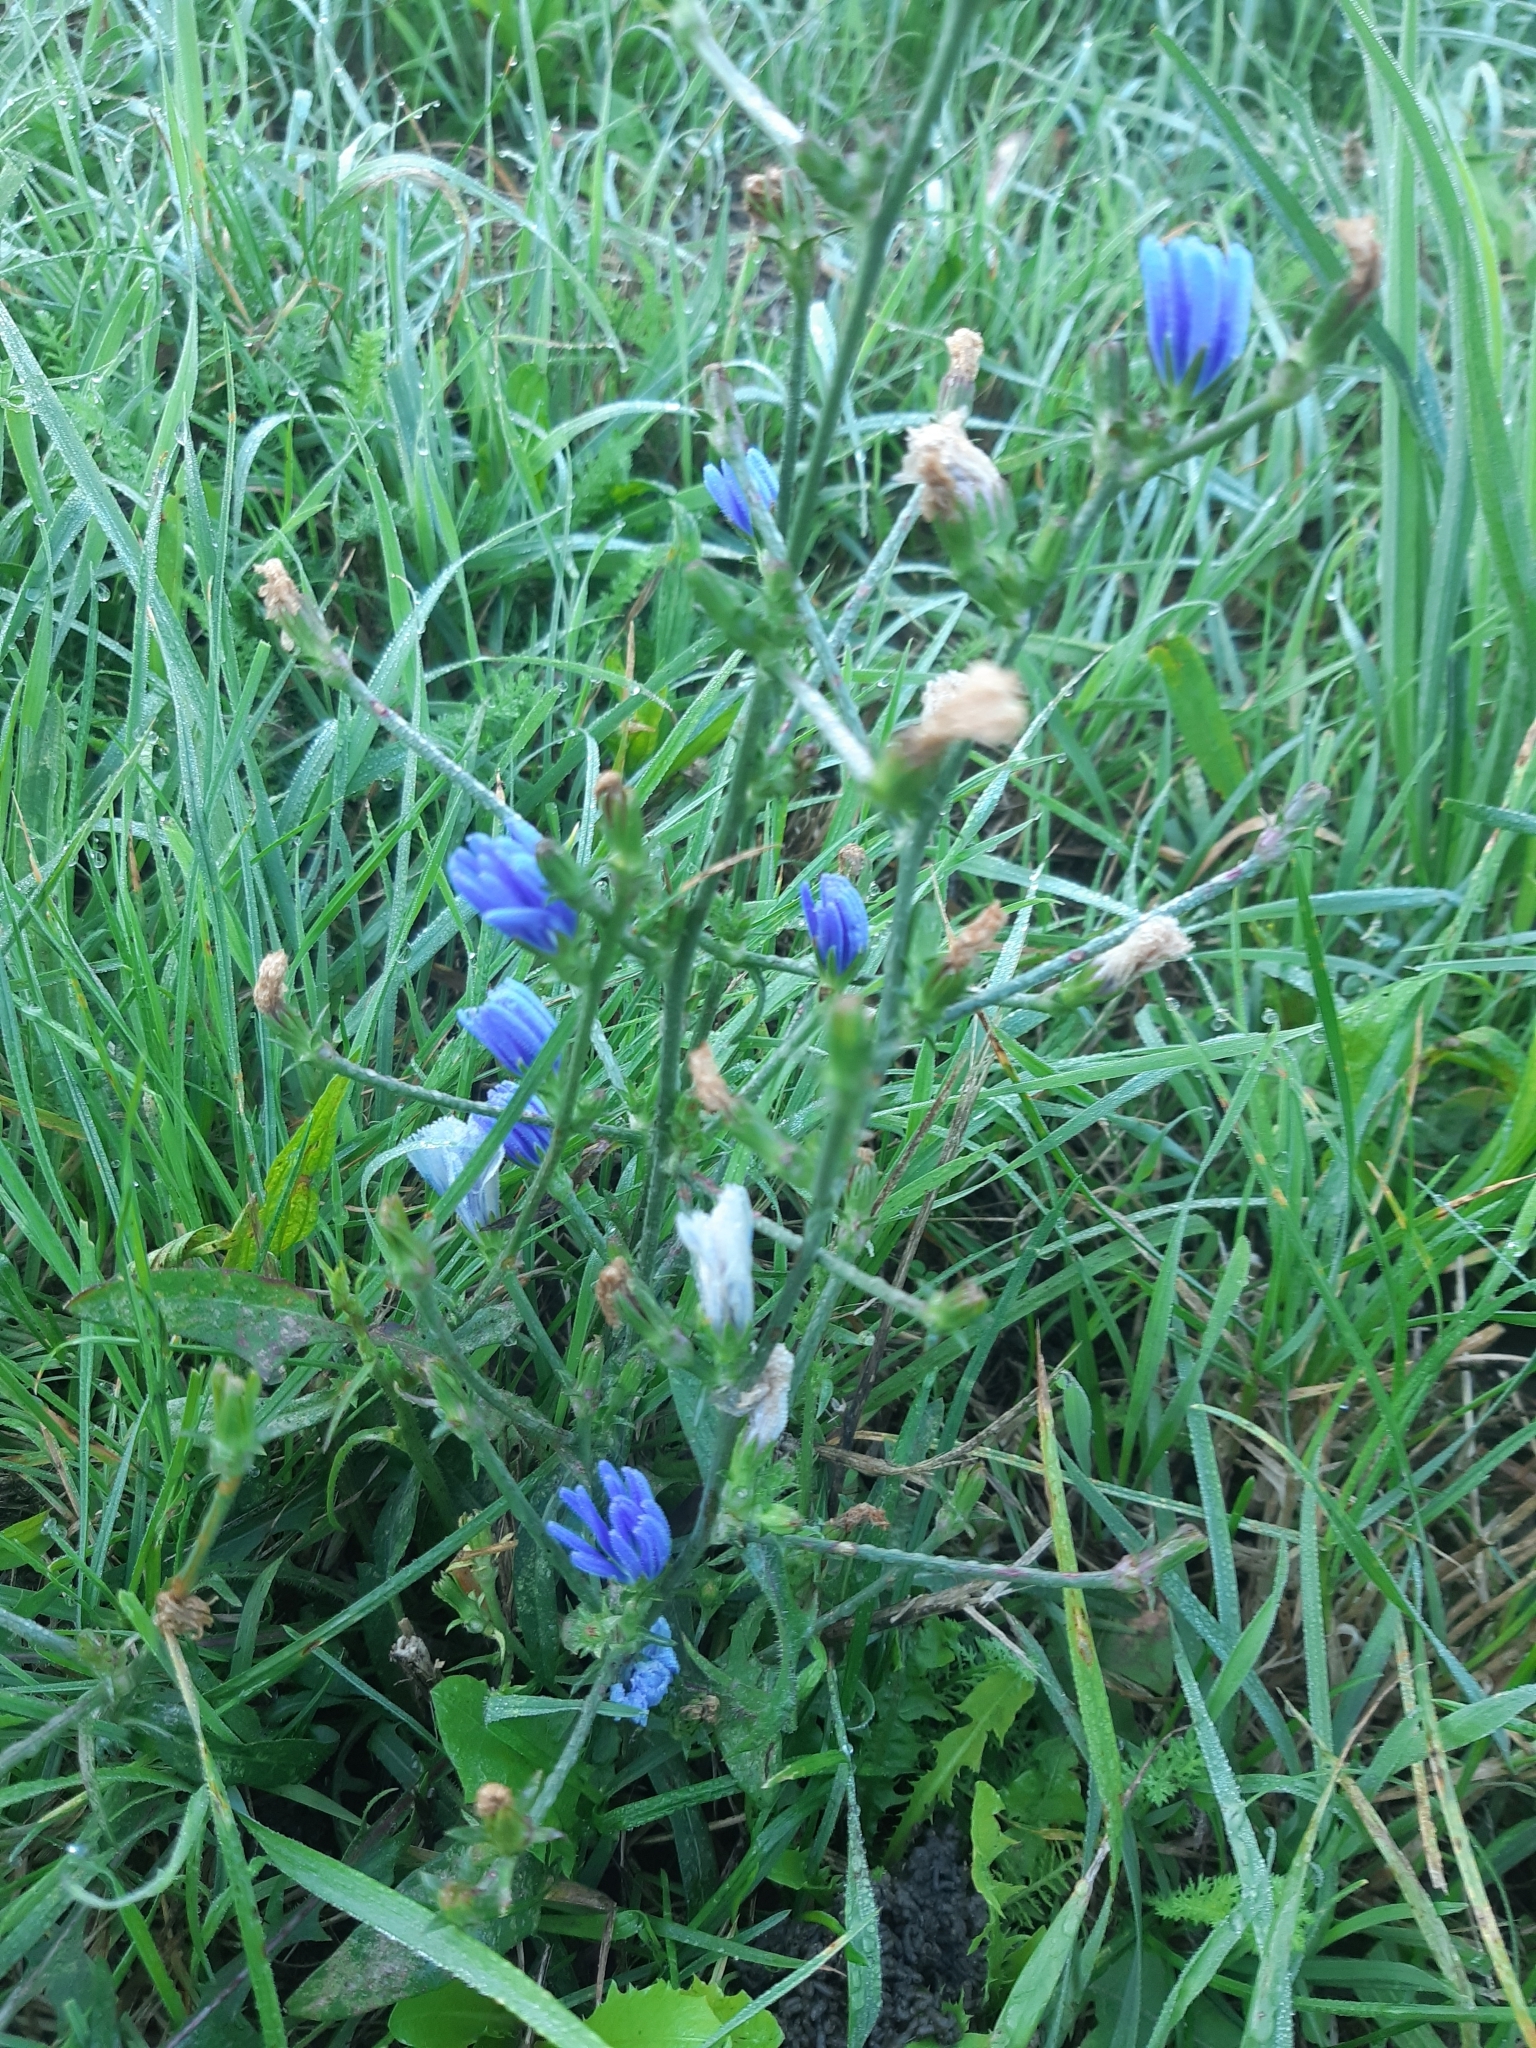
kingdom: Plantae
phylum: Tracheophyta
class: Magnoliopsida
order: Asterales
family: Asteraceae
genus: Cichorium
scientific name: Cichorium intybus
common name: Chicory
